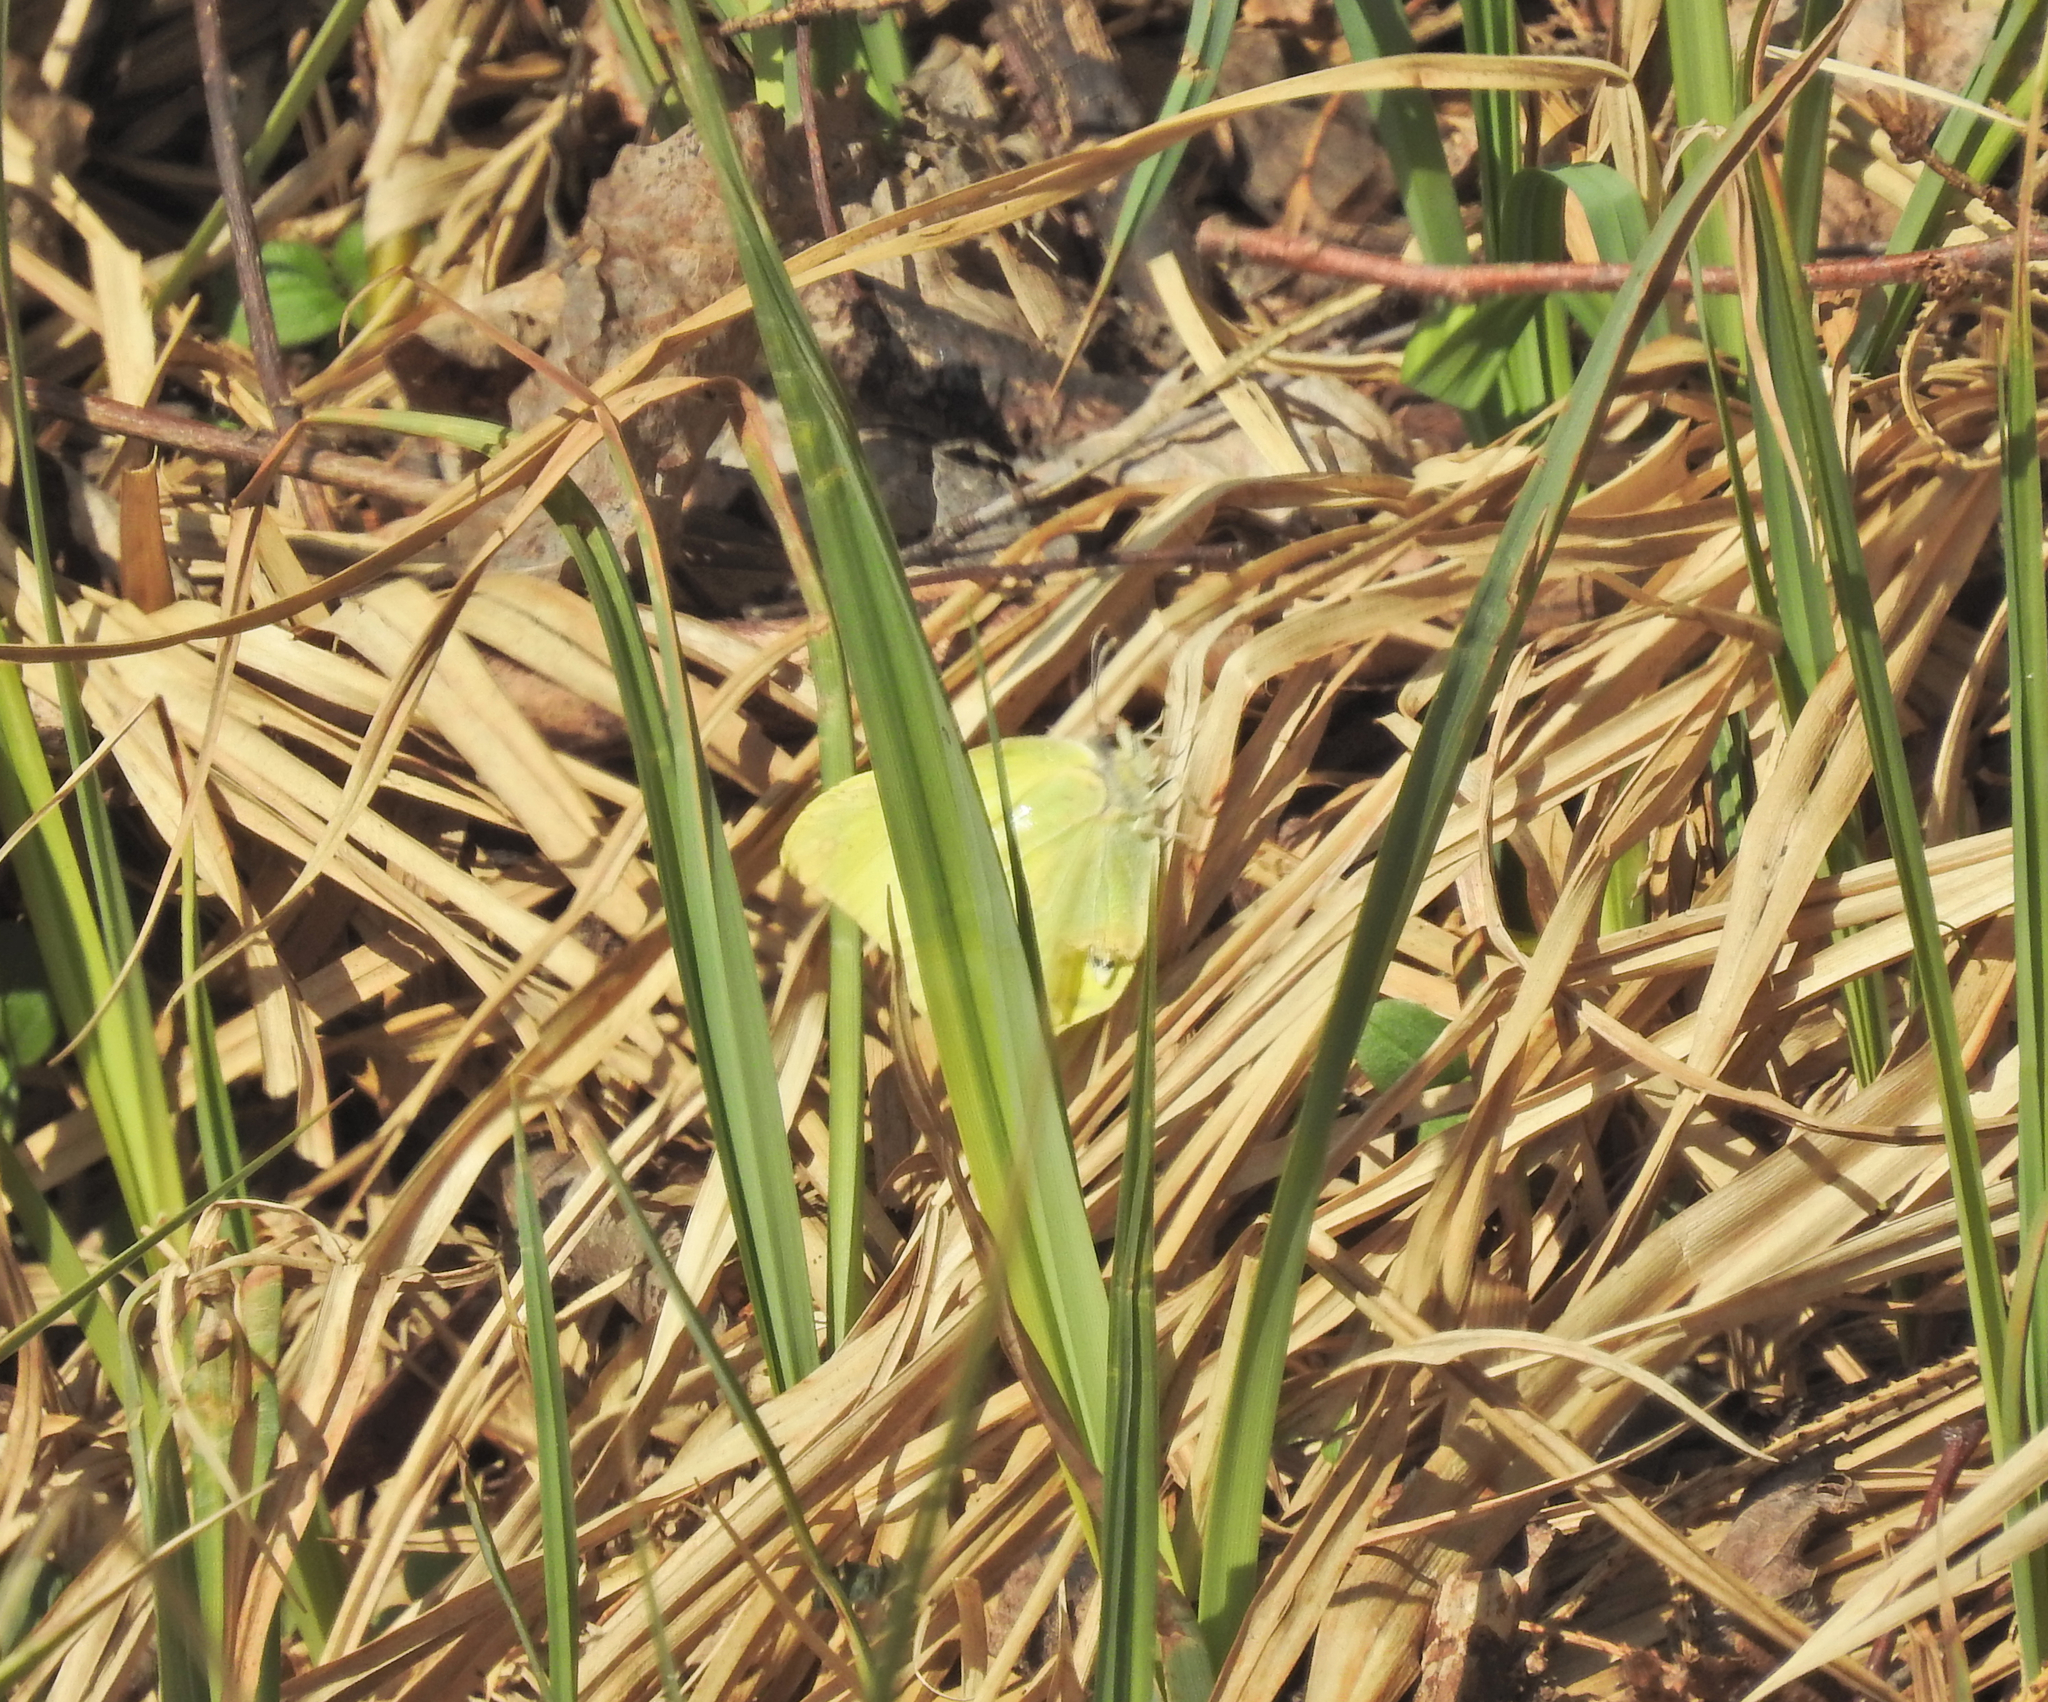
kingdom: Animalia
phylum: Arthropoda
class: Insecta
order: Lepidoptera
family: Pieridae
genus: Gonepteryx
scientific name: Gonepteryx rhamni
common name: Brimstone
